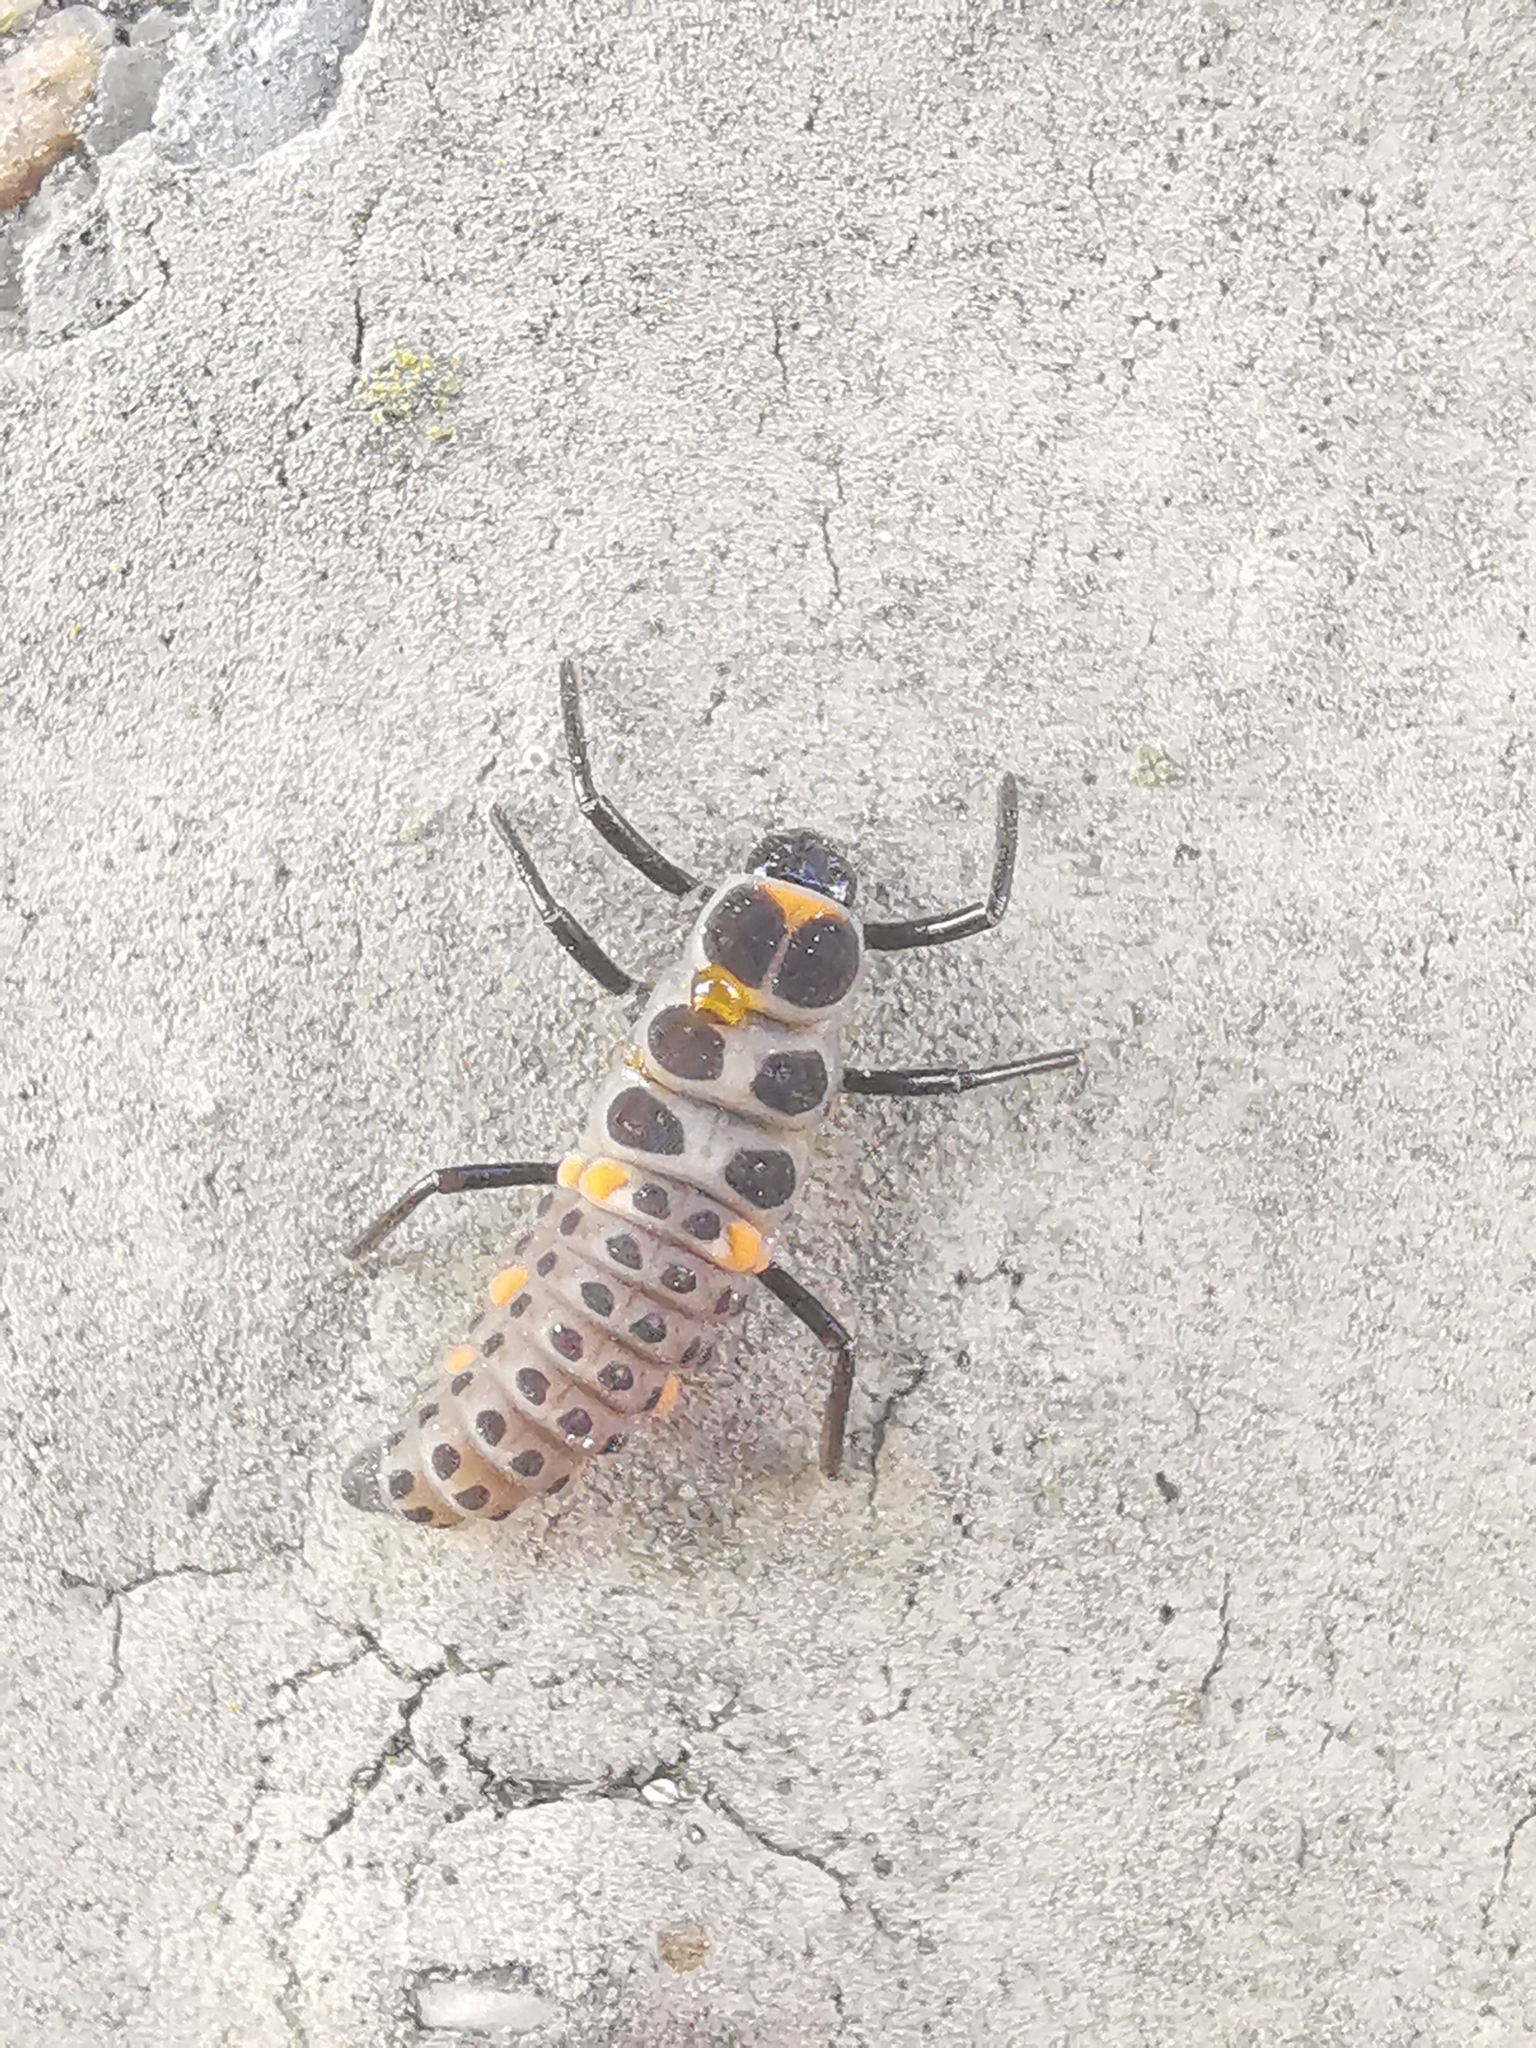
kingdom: Animalia
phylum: Arthropoda
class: Insecta
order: Coleoptera
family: Coccinellidae
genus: Myzia
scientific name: Myzia oblongoguttata
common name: Striped ladybird
